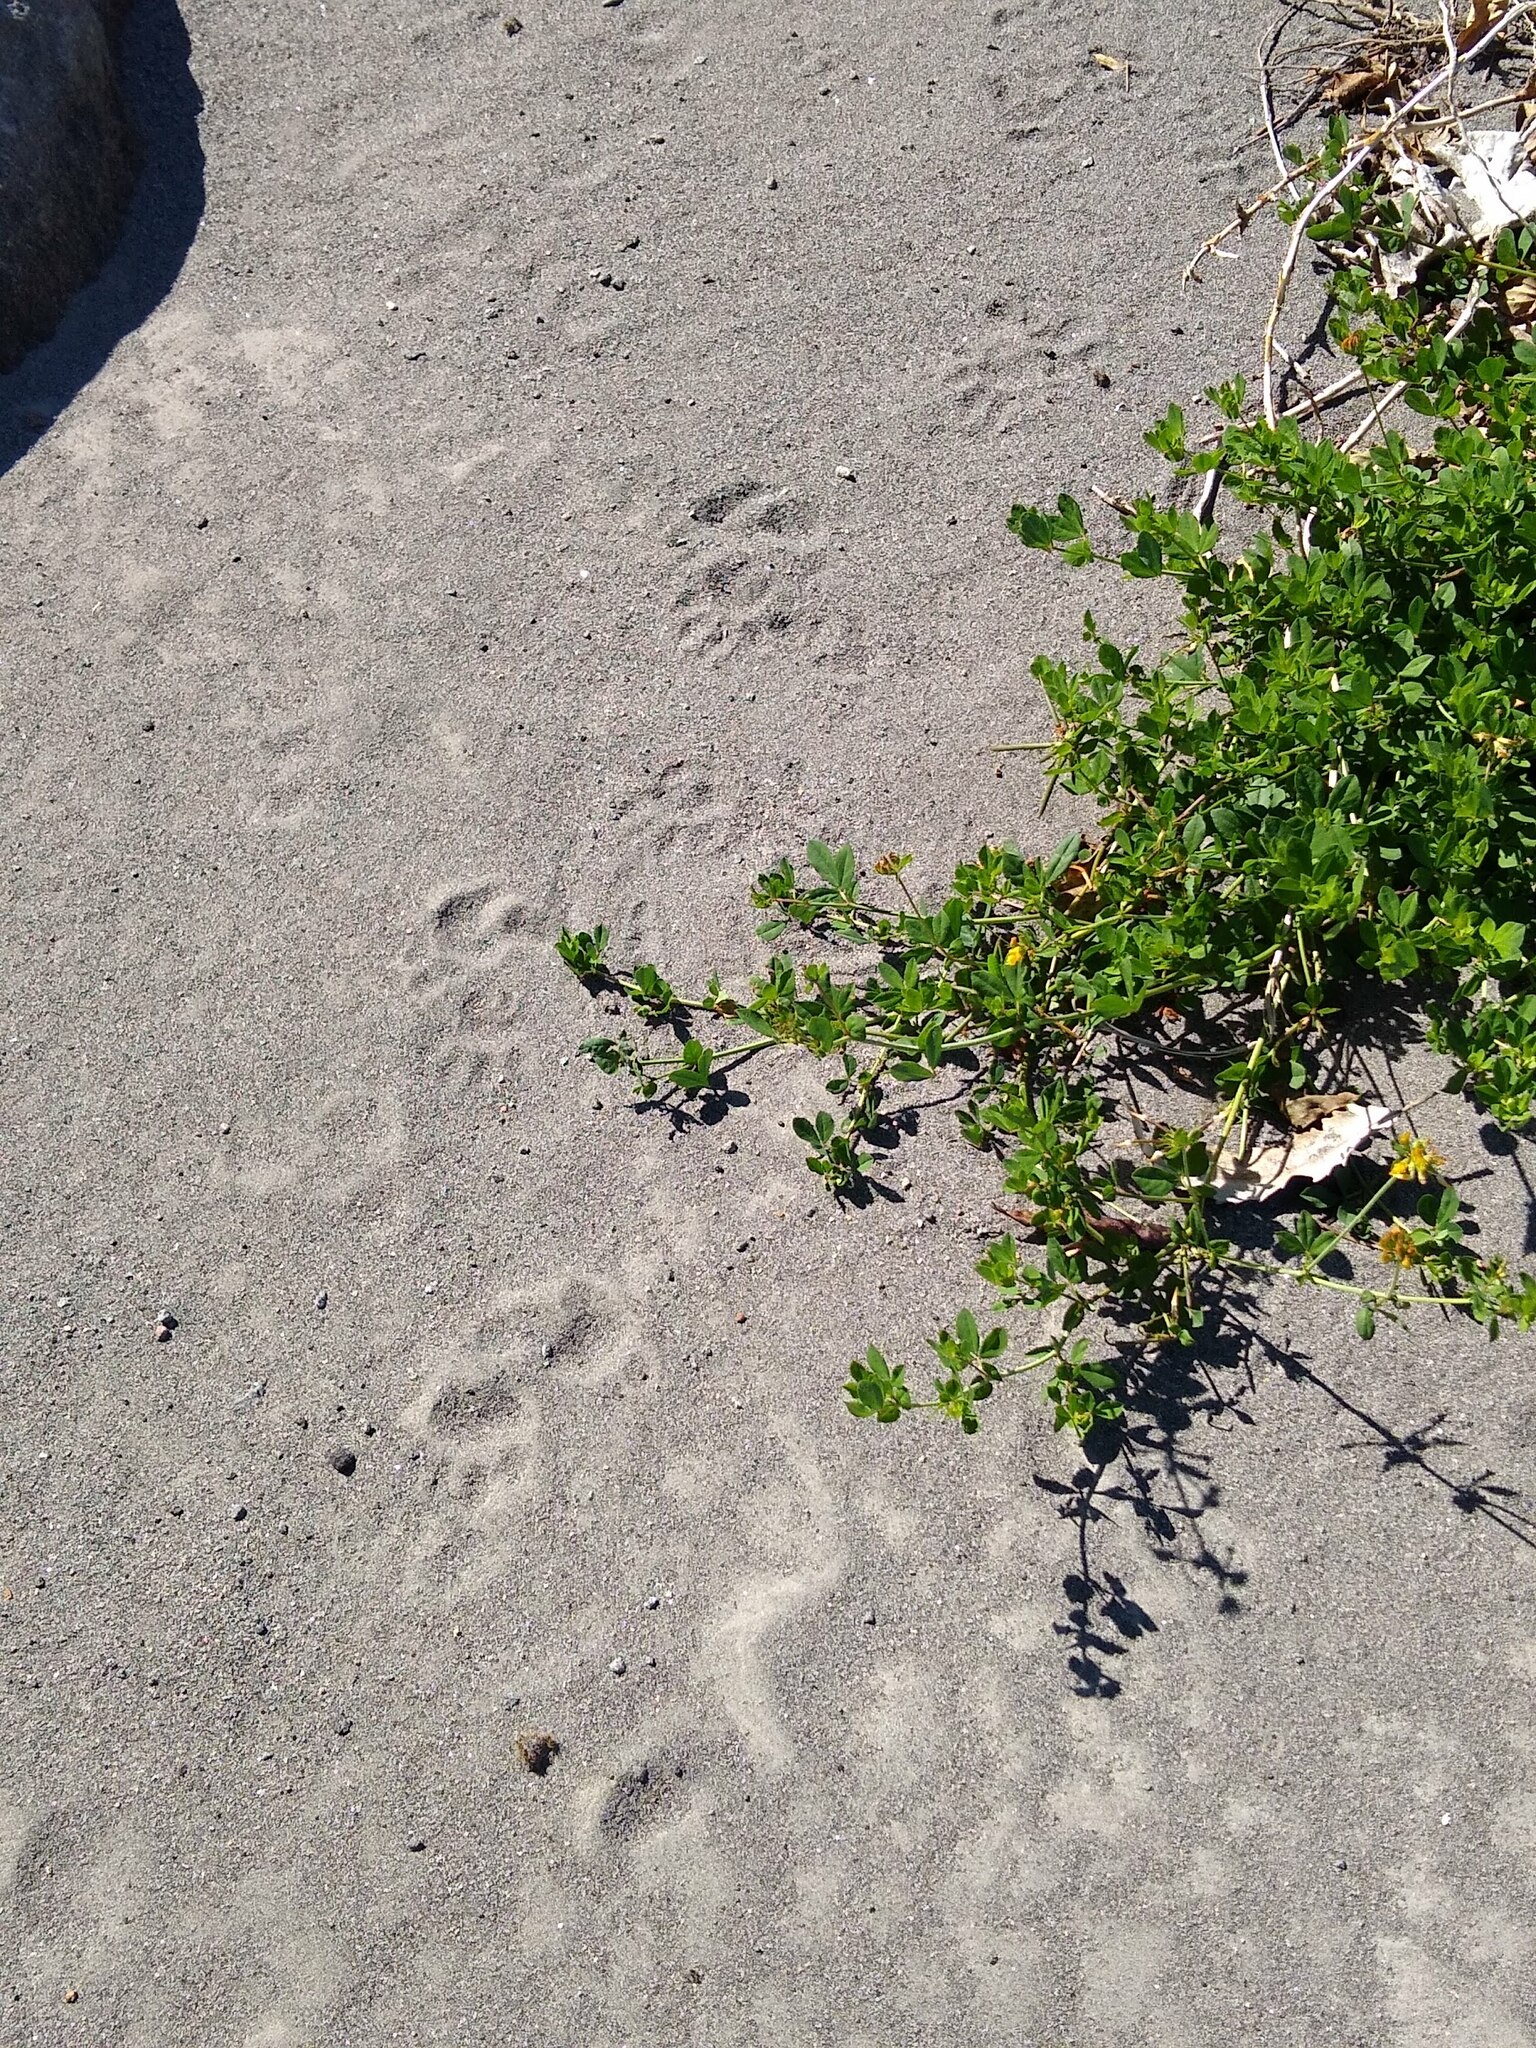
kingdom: Animalia
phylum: Chordata
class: Mammalia
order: Diprotodontia
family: Phalangeridae
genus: Trichosurus
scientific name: Trichosurus vulpecula
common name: Common brushtail
